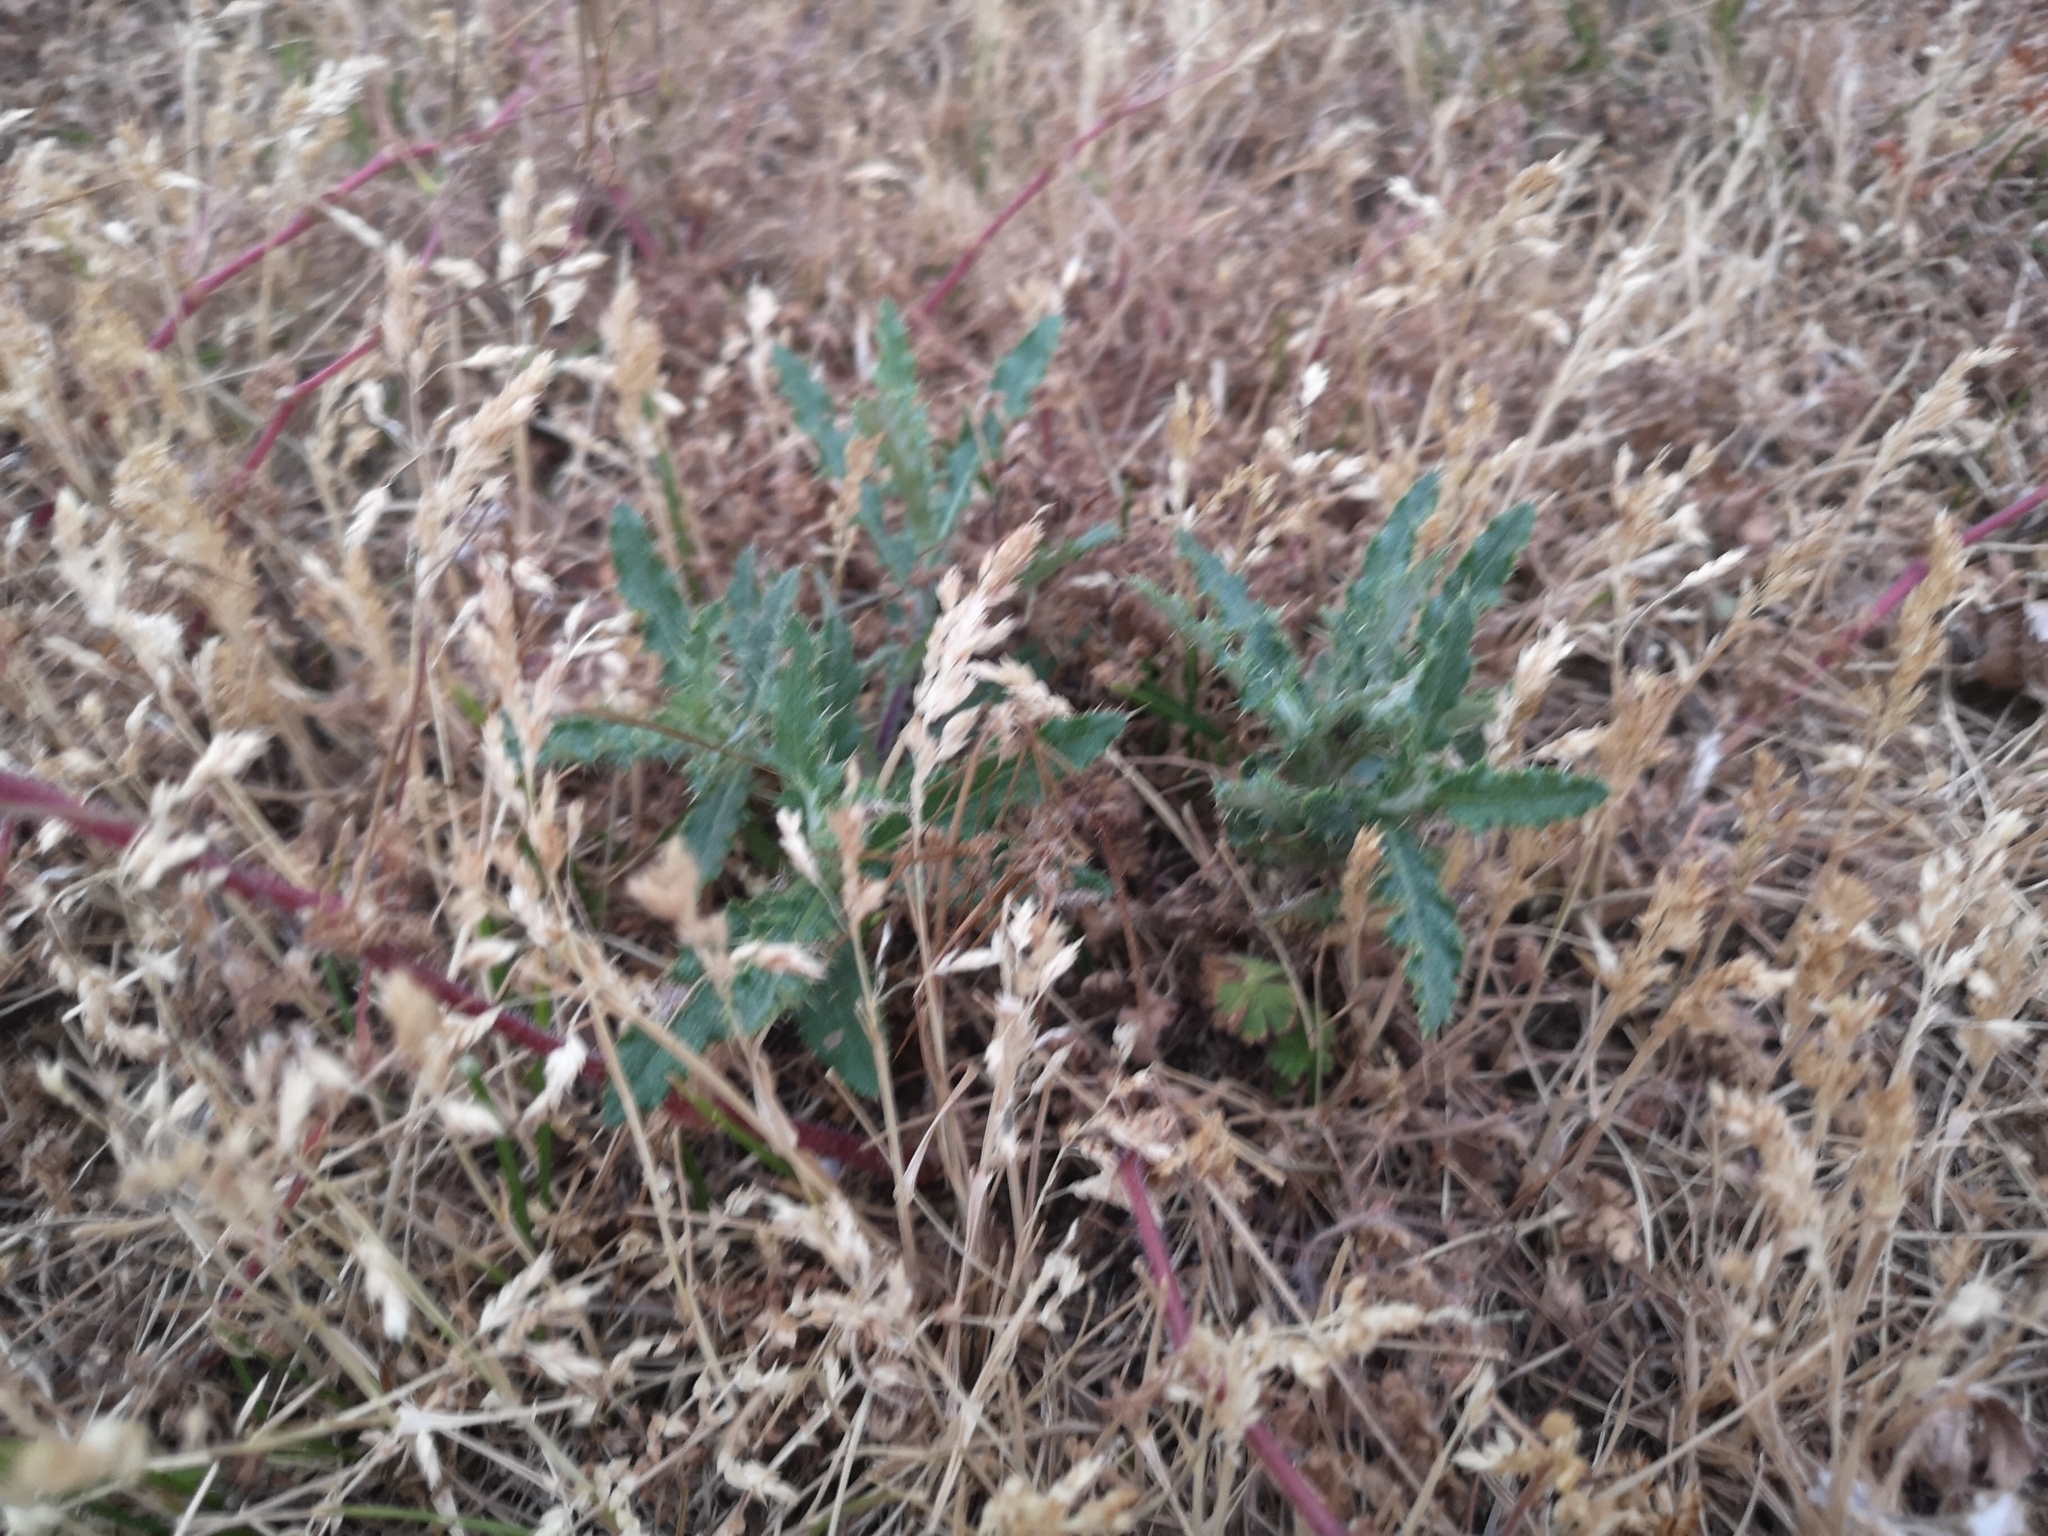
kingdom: Plantae
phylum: Tracheophyta
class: Magnoliopsida
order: Asterales
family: Asteraceae
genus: Cirsium
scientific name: Cirsium arvense
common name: Creeping thistle
